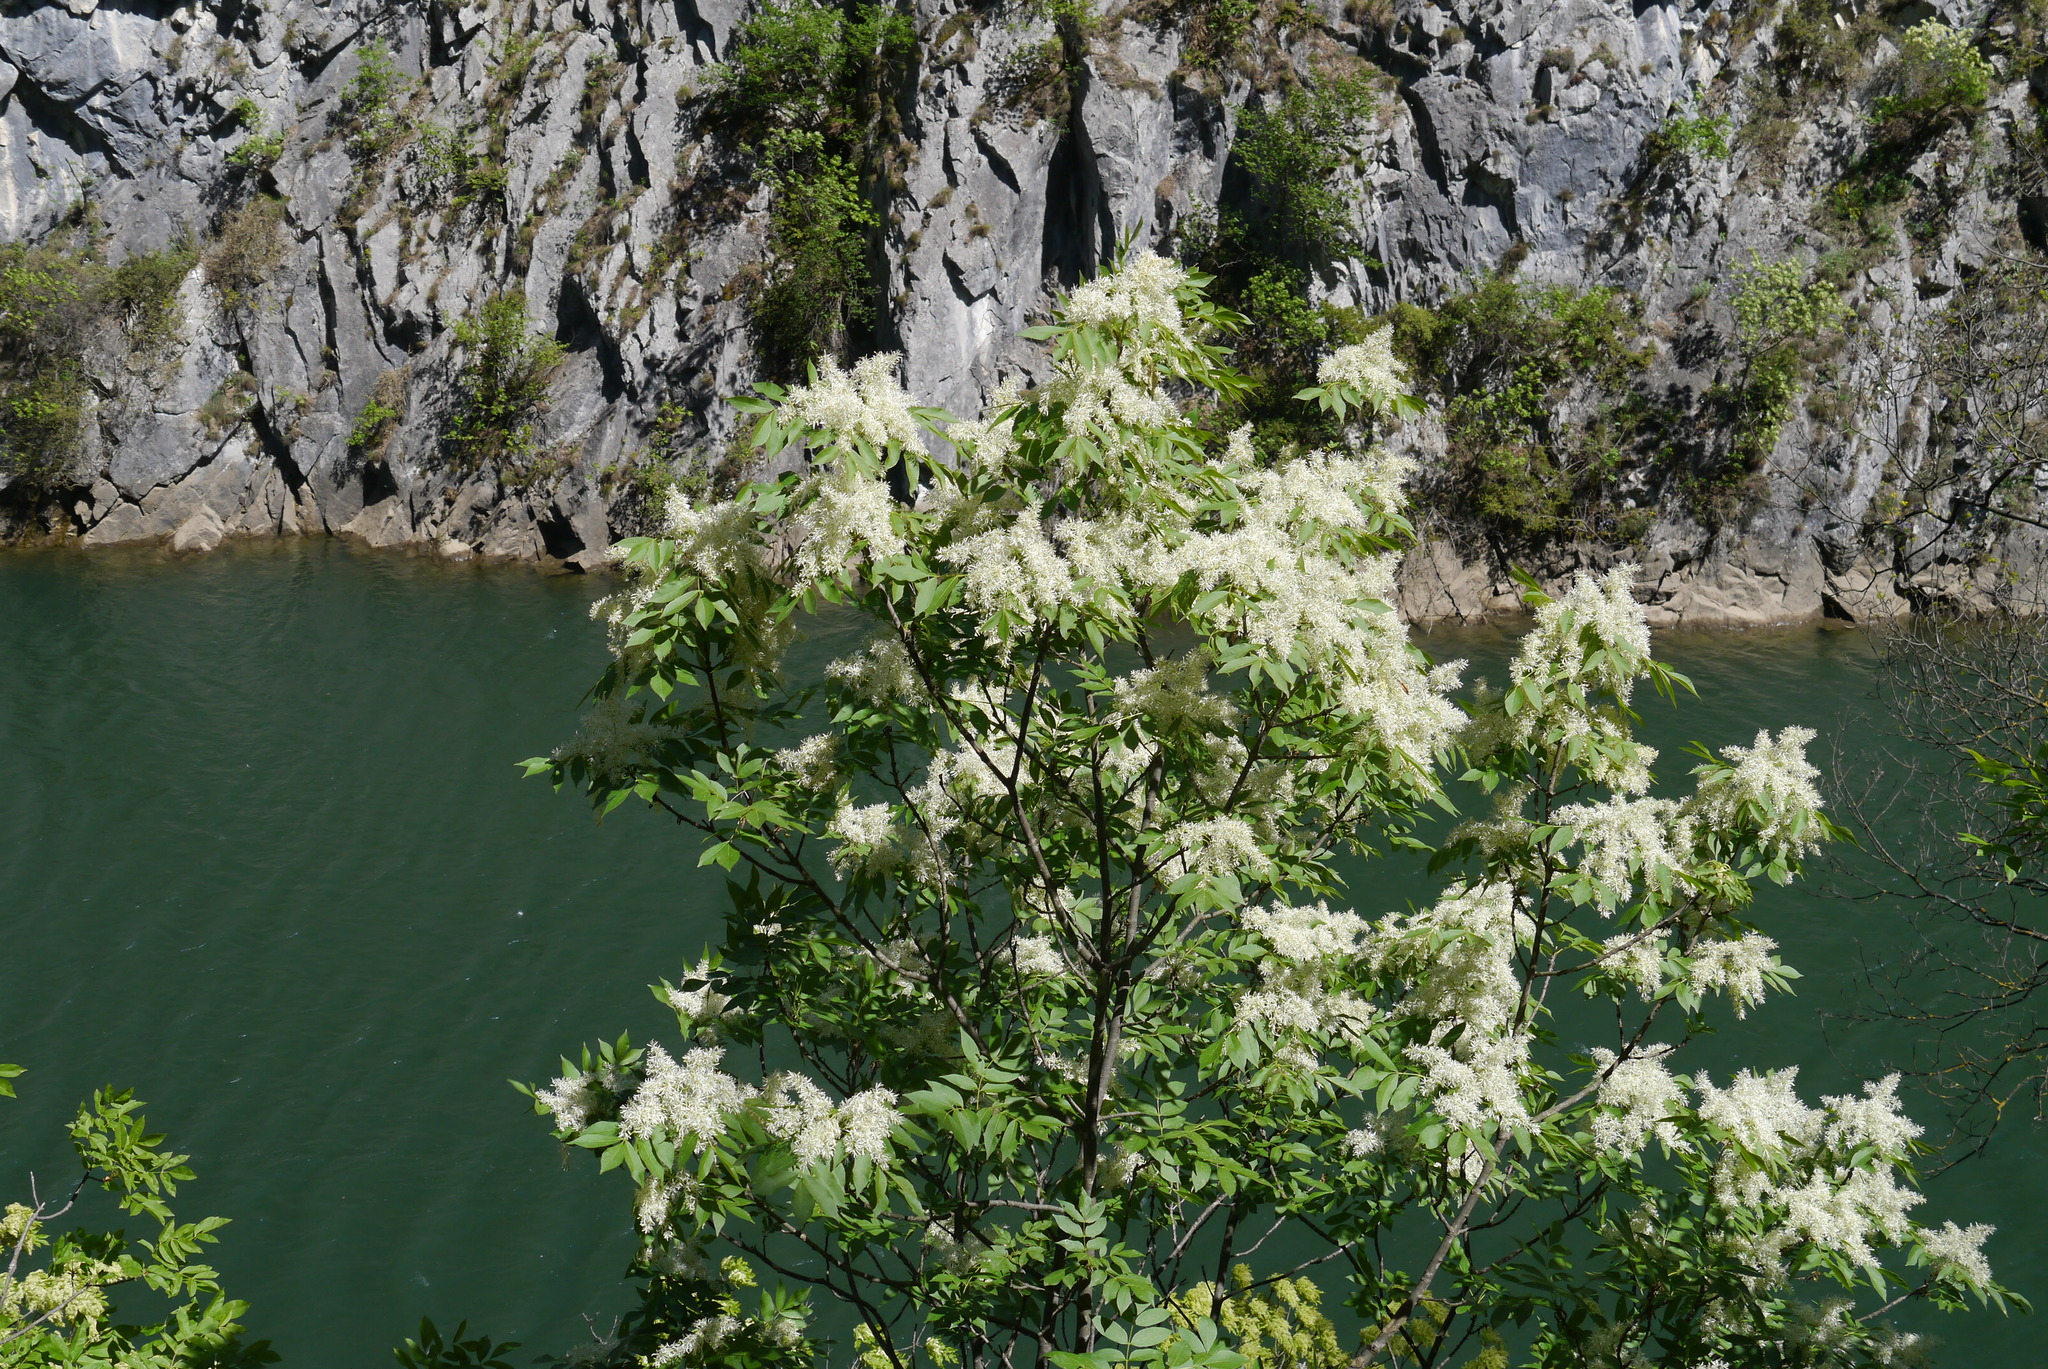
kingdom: Plantae
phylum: Tracheophyta
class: Magnoliopsida
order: Lamiales
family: Oleaceae
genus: Fraxinus
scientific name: Fraxinus ornus
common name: Manna ash
